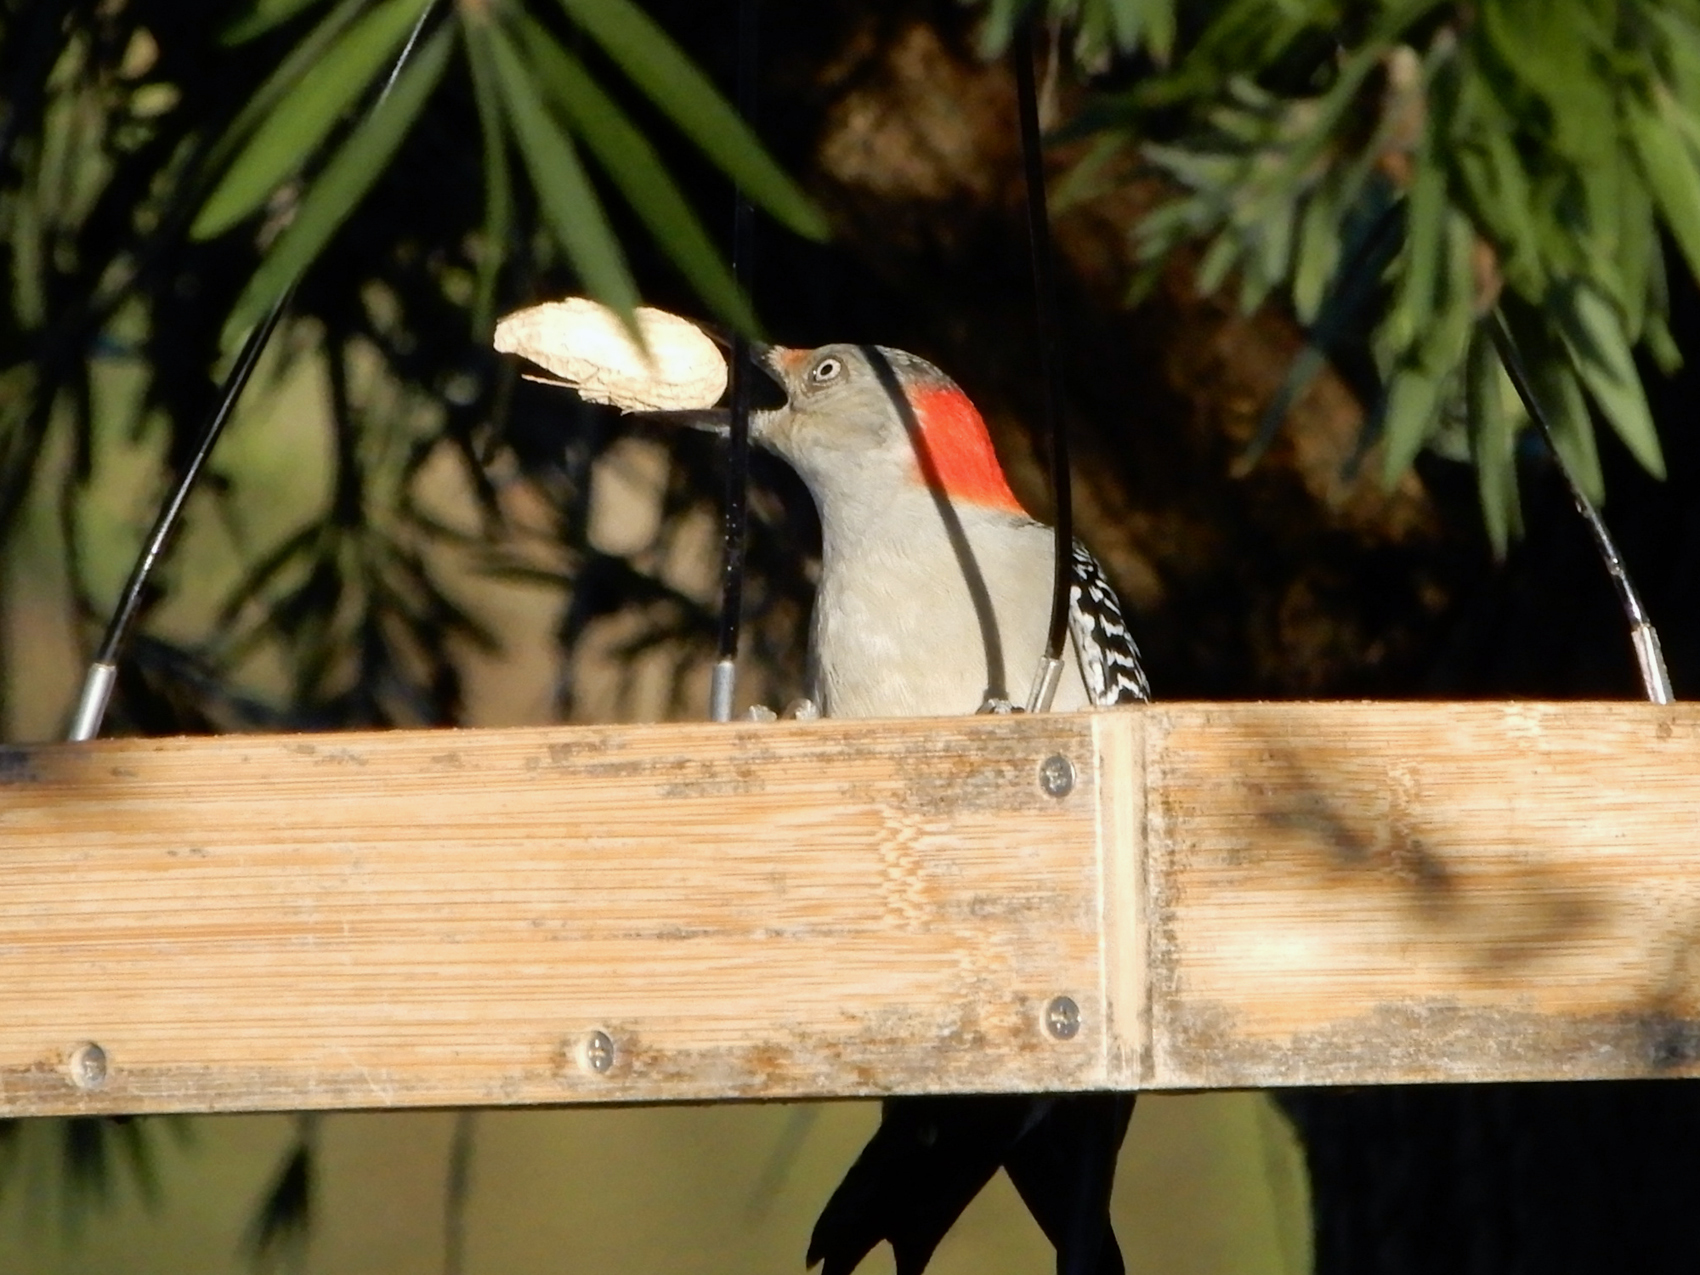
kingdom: Animalia
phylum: Chordata
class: Aves
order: Piciformes
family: Picidae
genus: Melanerpes
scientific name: Melanerpes carolinus
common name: Red-bellied woodpecker
